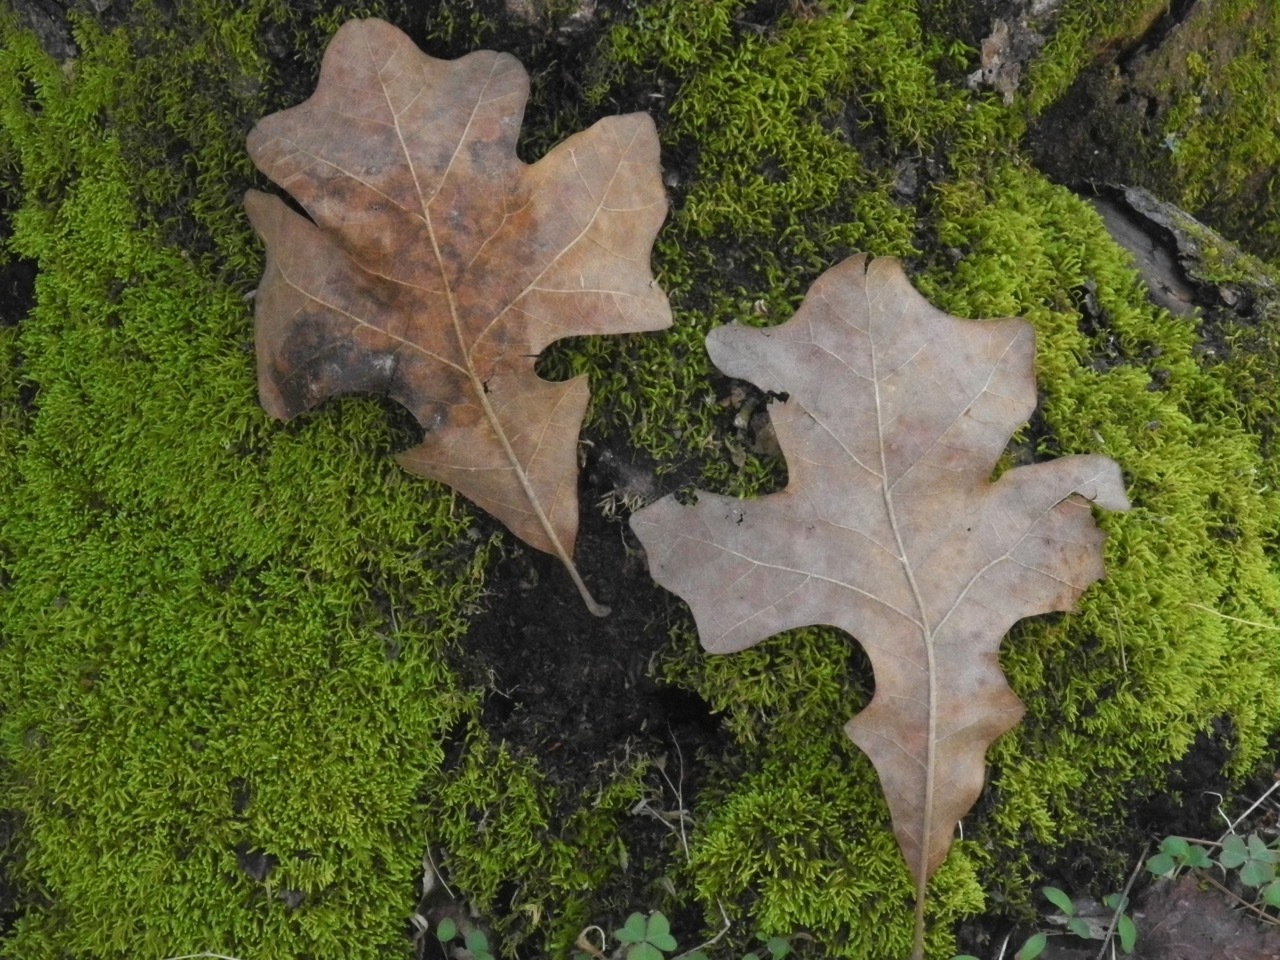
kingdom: Plantae
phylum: Tracheophyta
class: Magnoliopsida
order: Fagales
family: Fagaceae
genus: Quercus
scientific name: Quercus stellata
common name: Post oak
